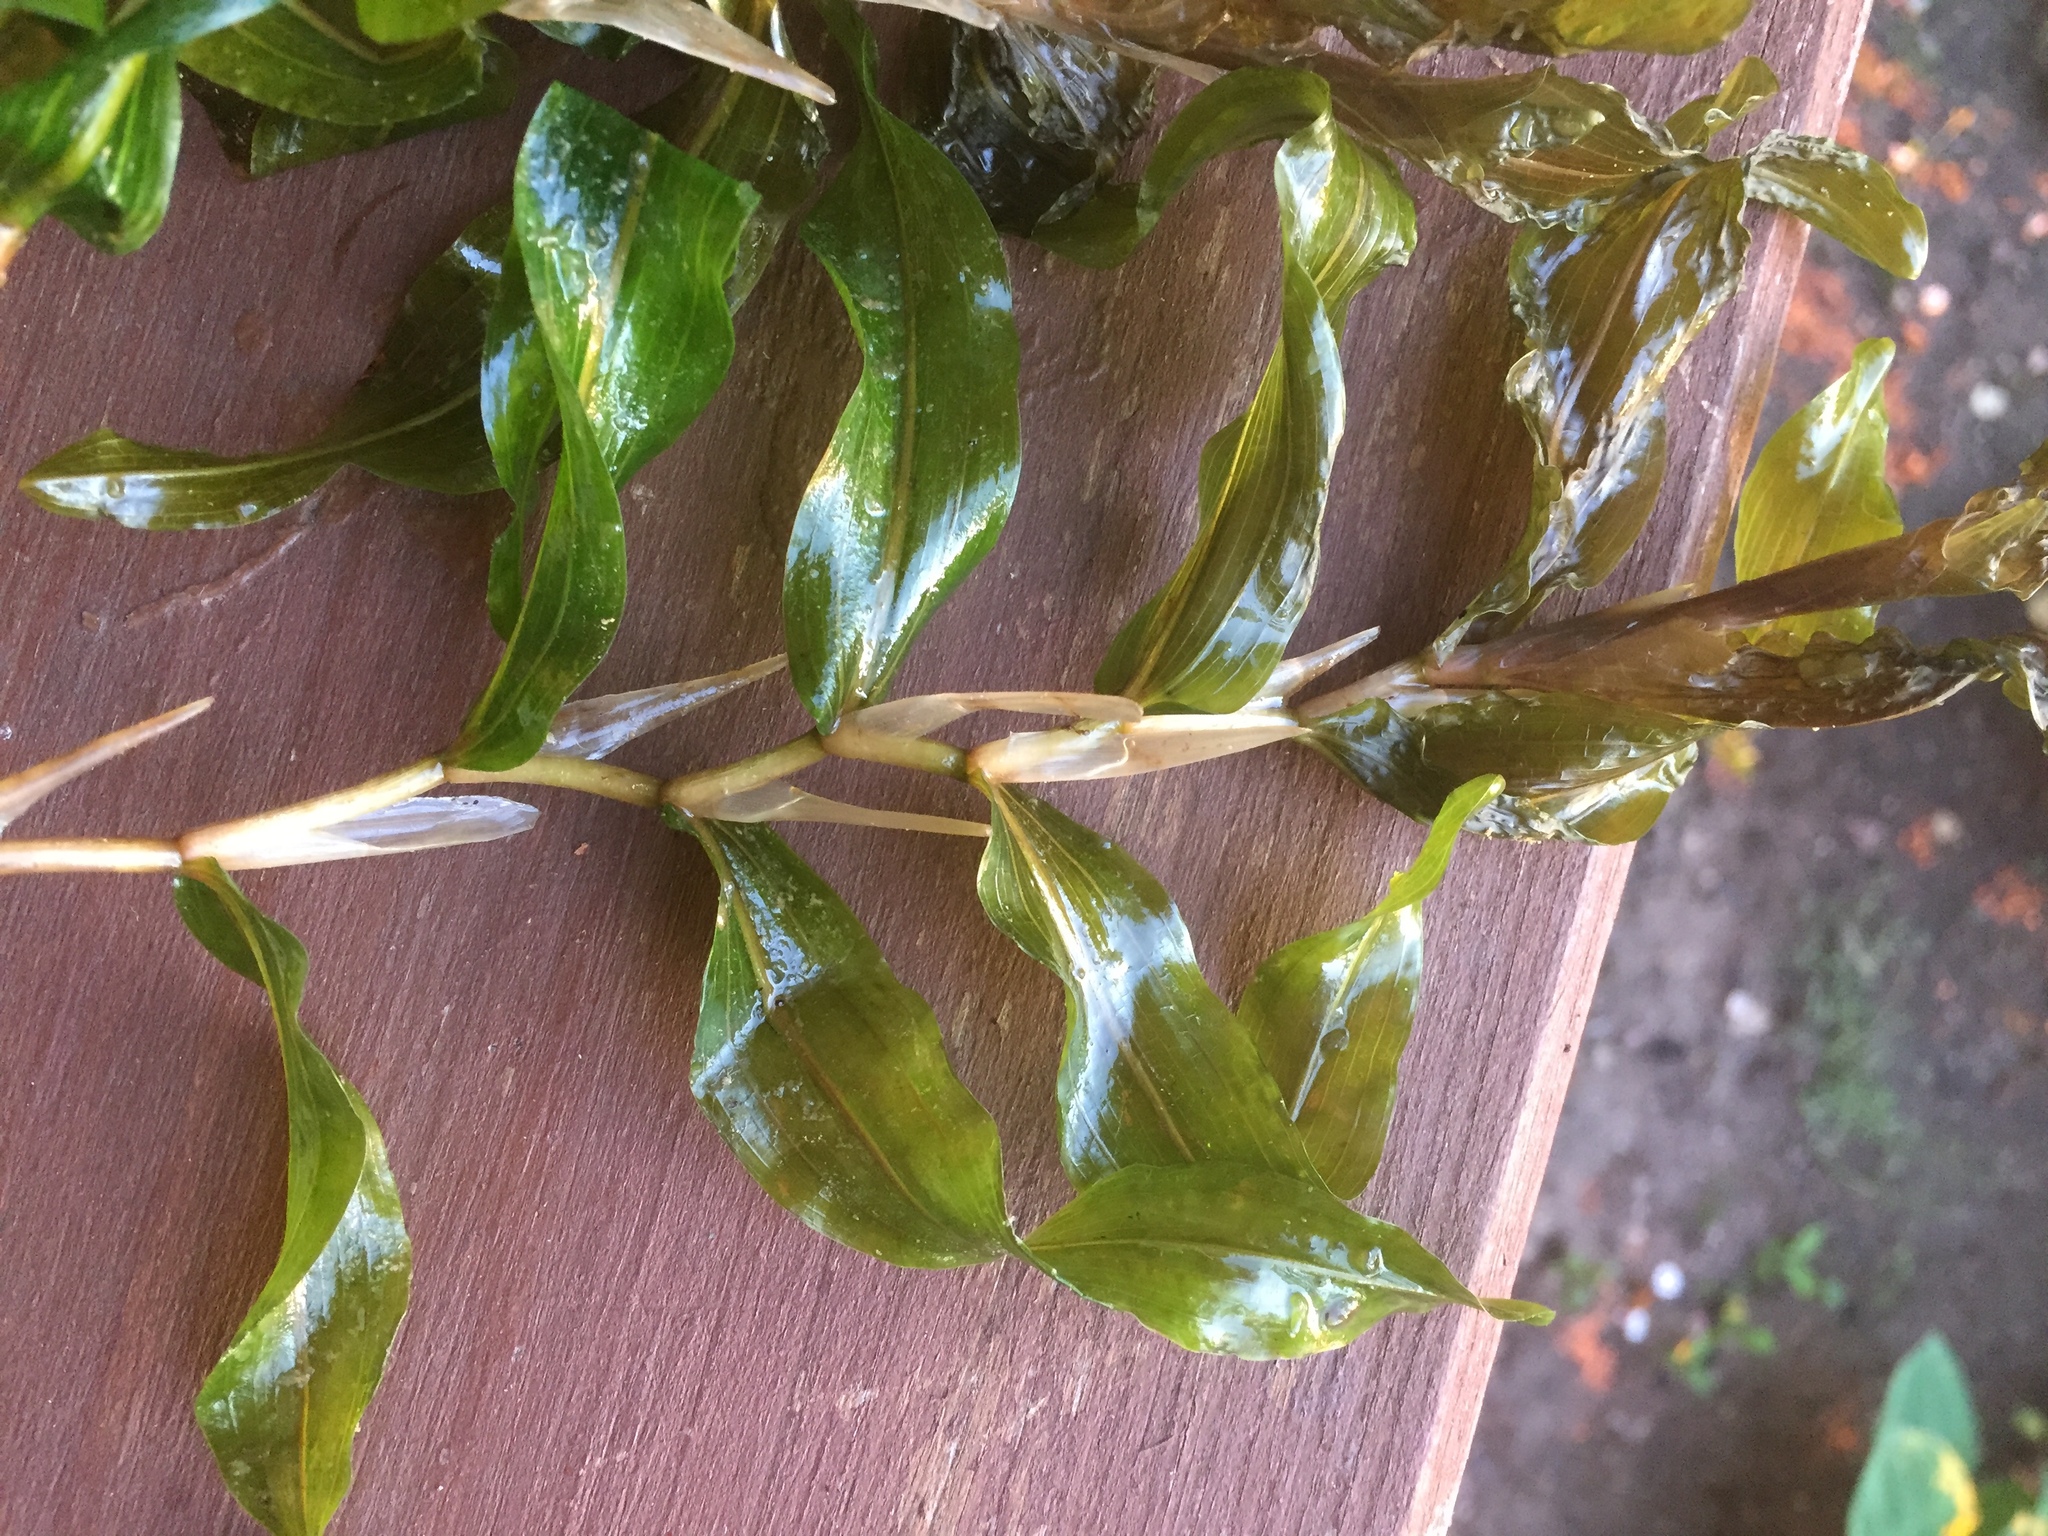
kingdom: Plantae
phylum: Tracheophyta
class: Liliopsida
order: Alismatales
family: Potamogetonaceae
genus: Potamogeton
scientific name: Potamogeton praelongus
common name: Long-stalked pondweed
